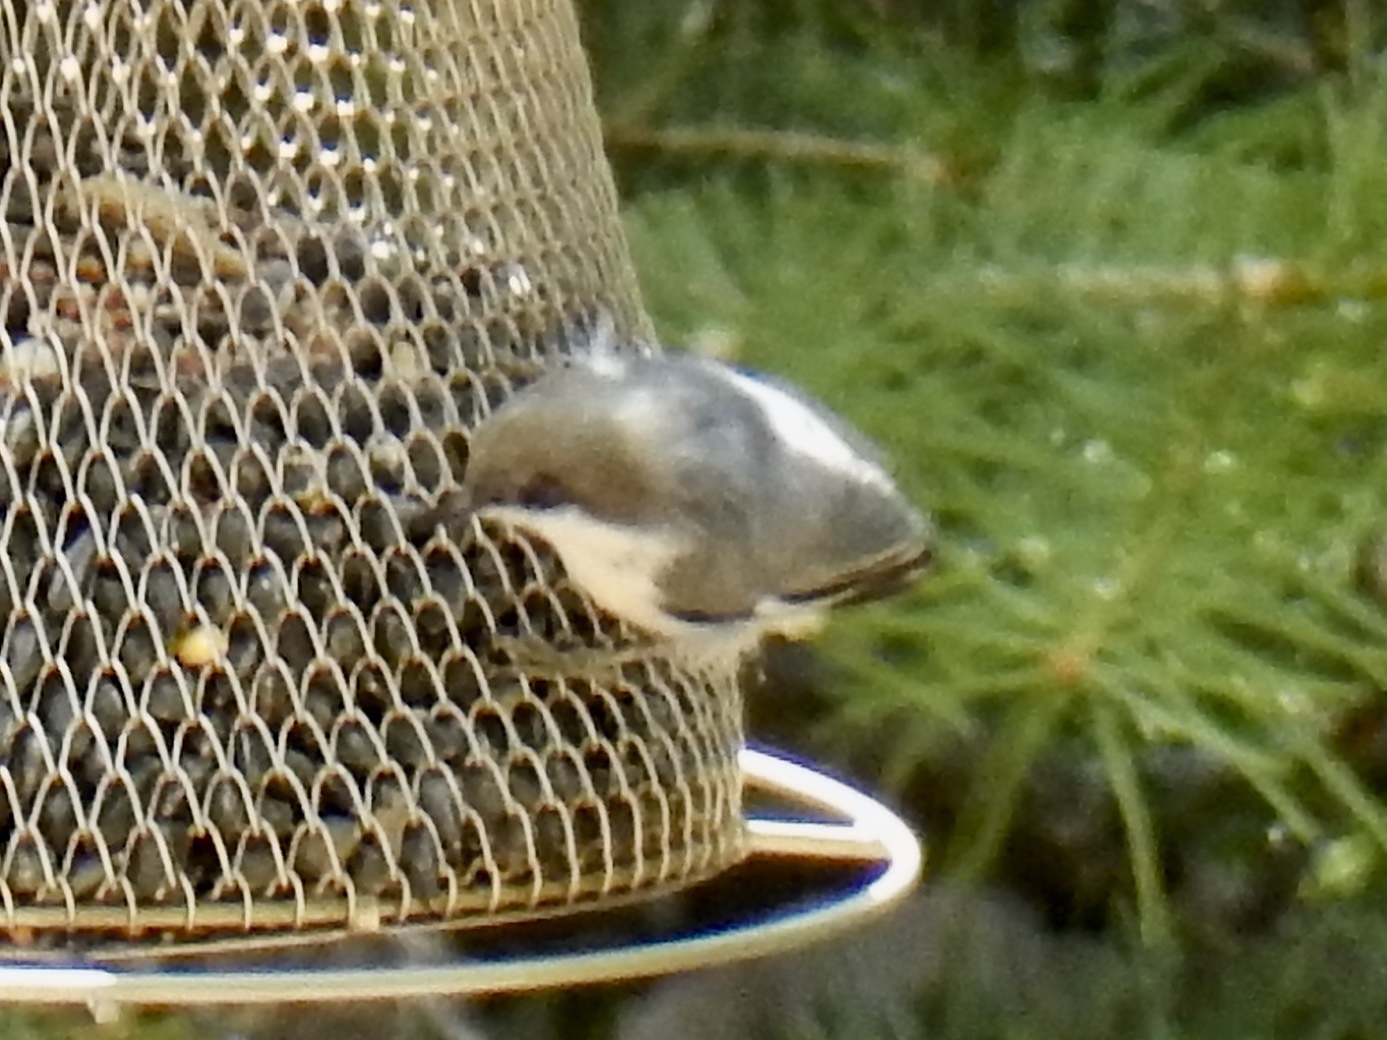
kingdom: Animalia
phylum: Chordata
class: Aves
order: Passeriformes
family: Sittidae
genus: Sitta
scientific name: Sitta pygmaea
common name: Pygmy nuthatch
